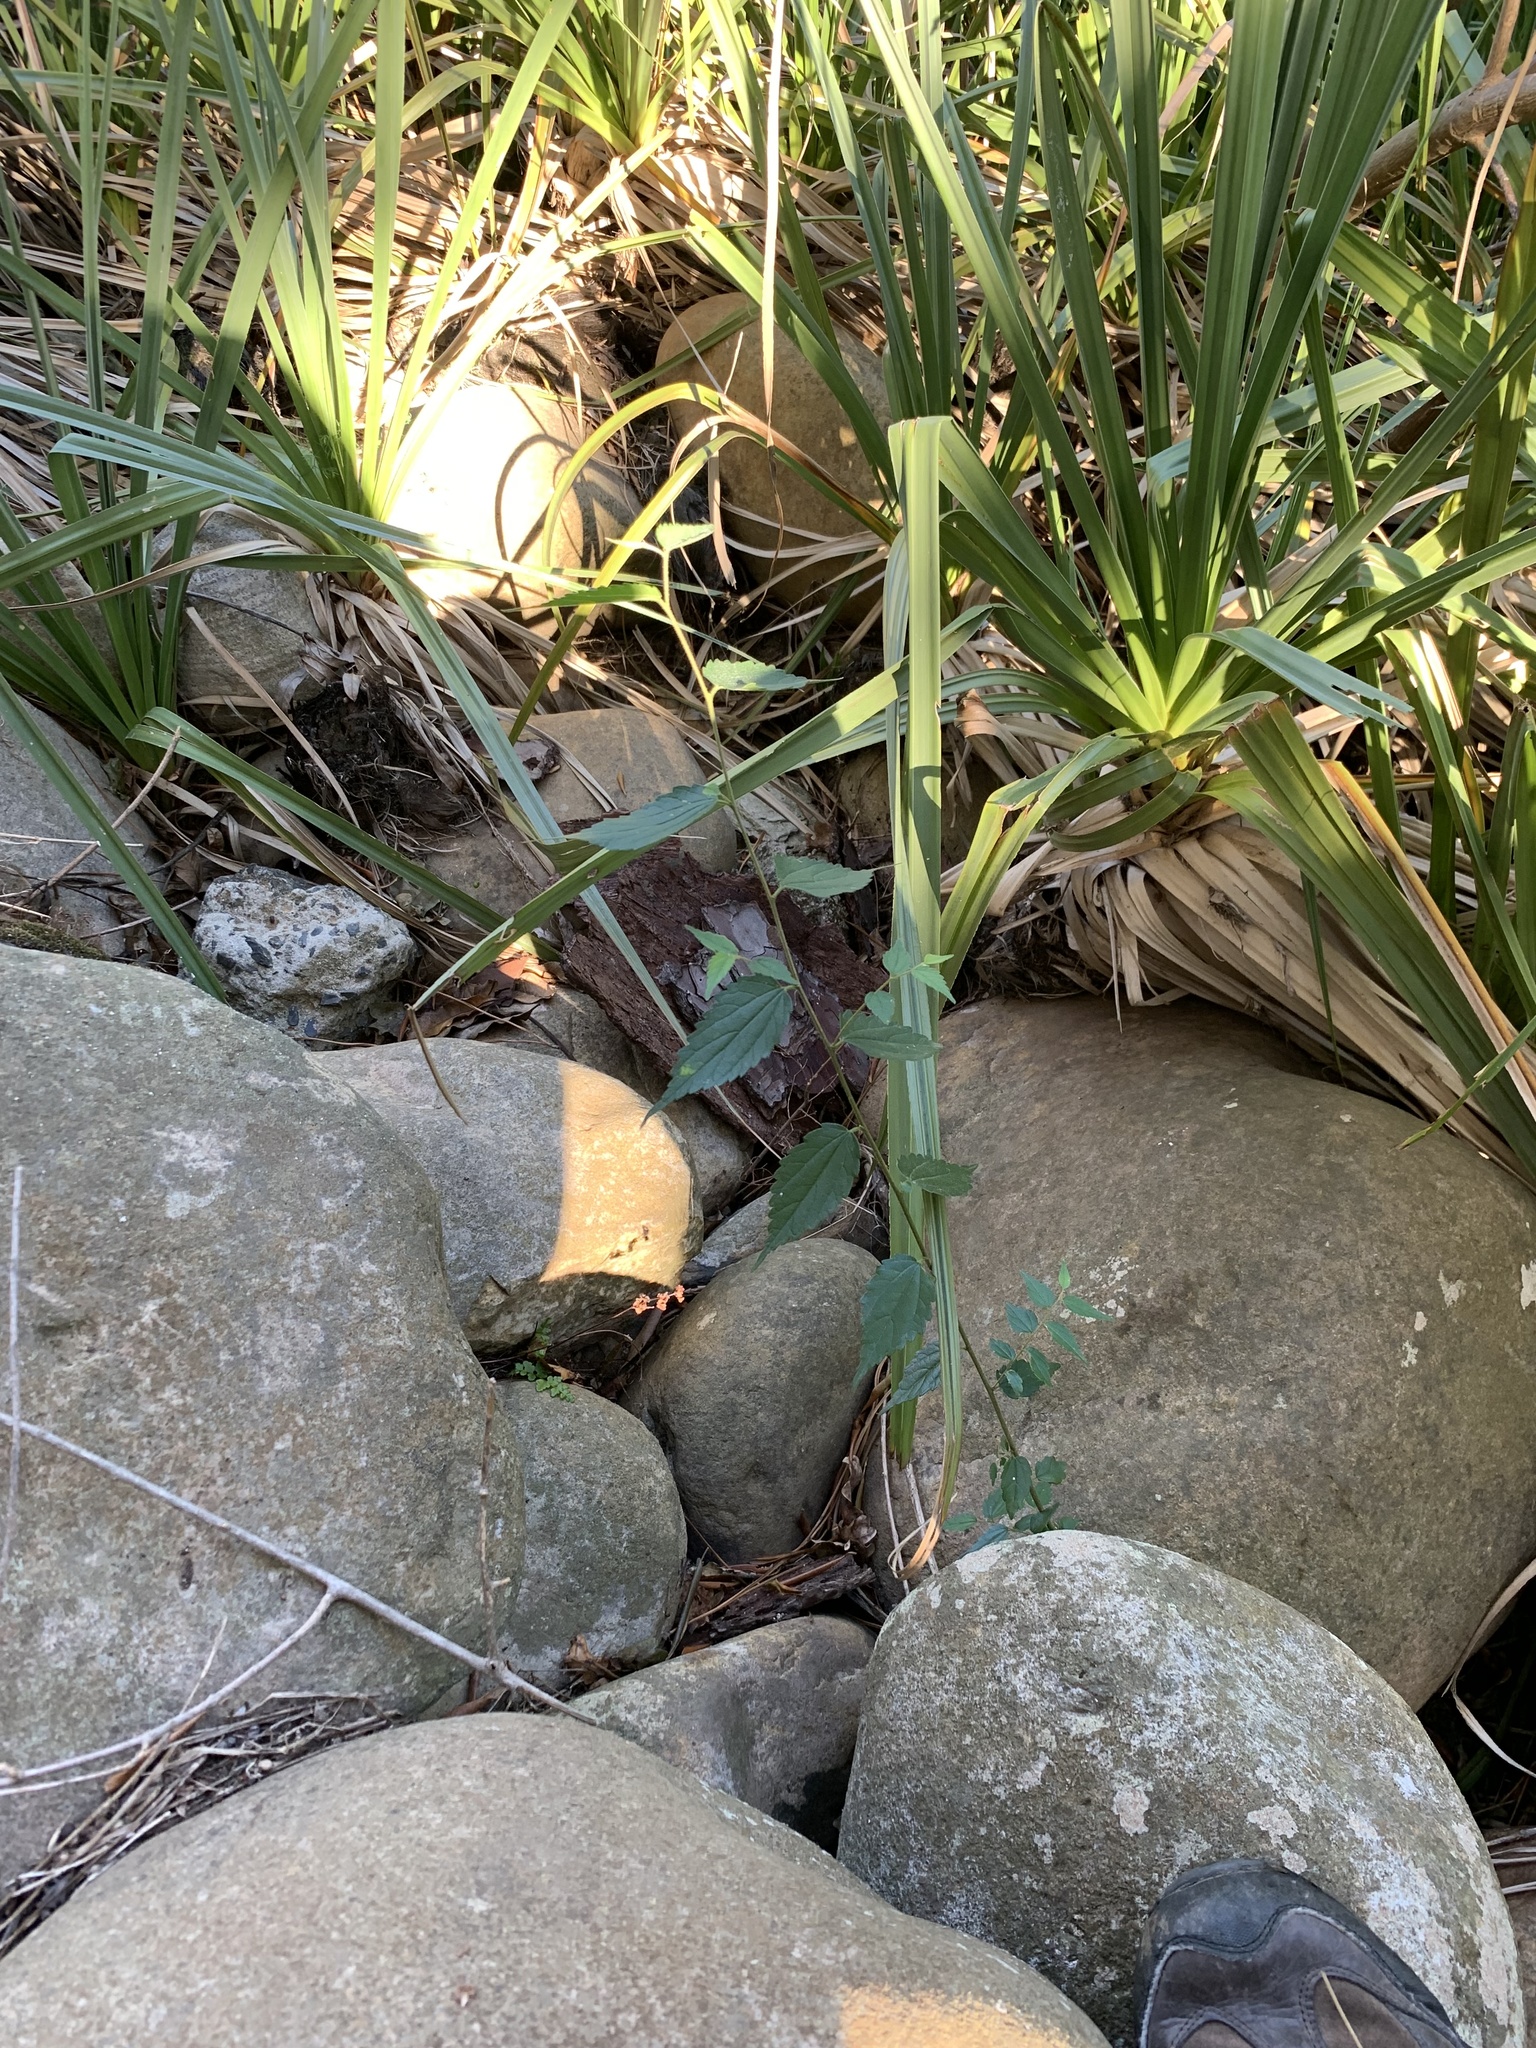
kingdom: Plantae
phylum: Tracheophyta
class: Magnoliopsida
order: Rosales
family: Cannabaceae
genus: Celtis
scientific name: Celtis africana
